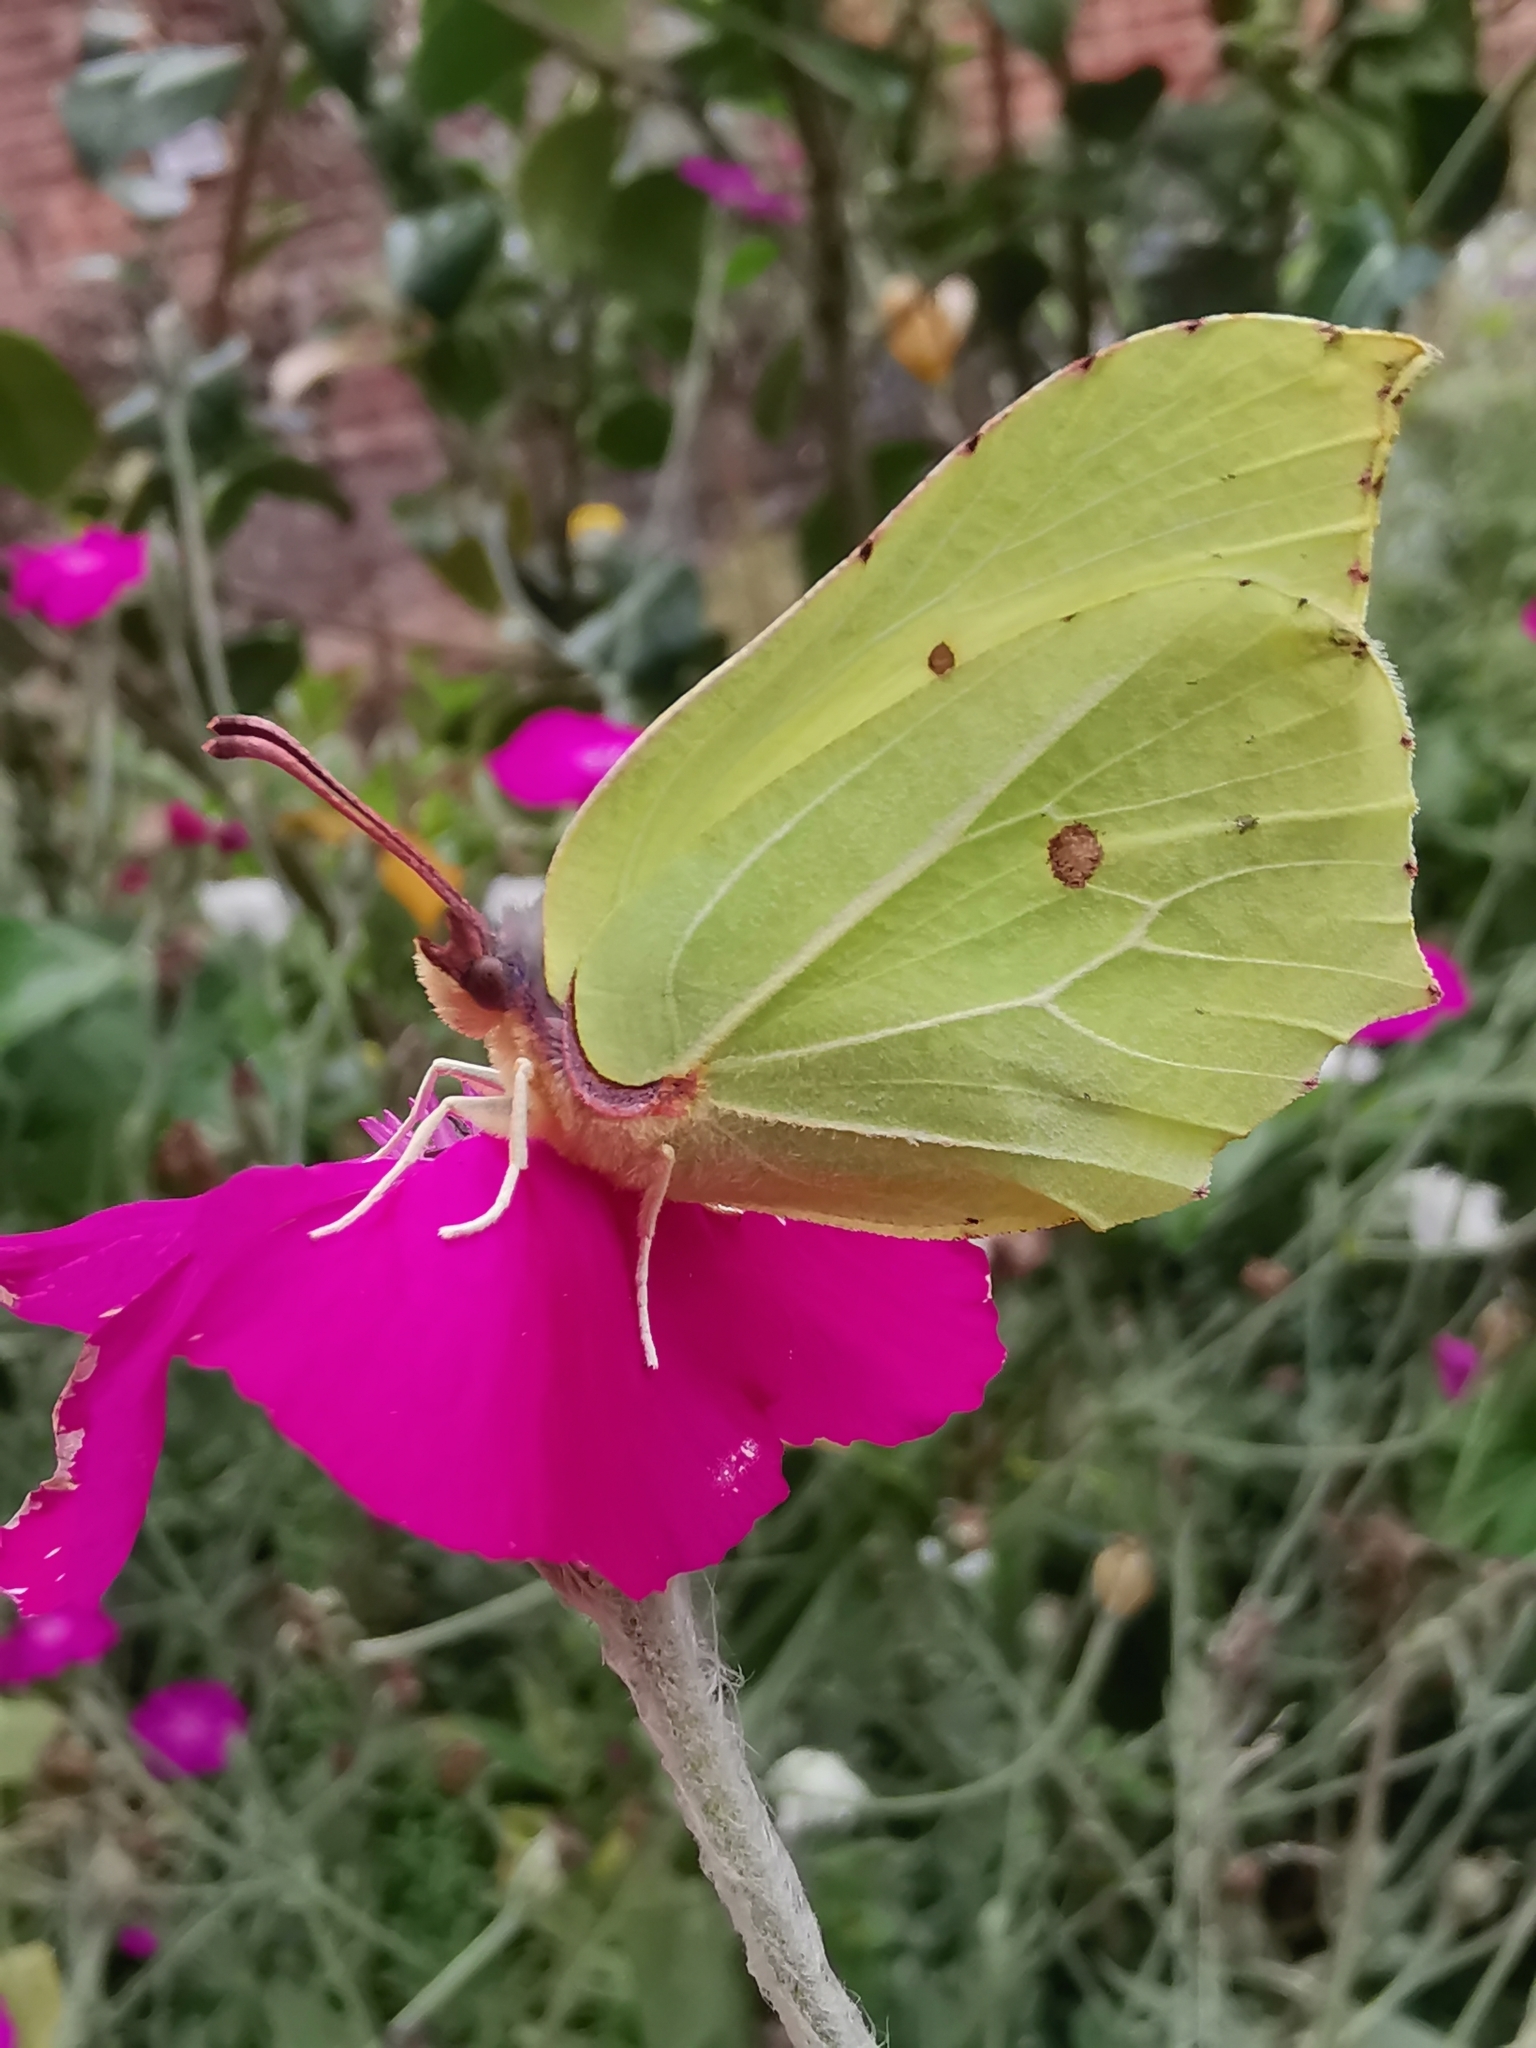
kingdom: Animalia
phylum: Arthropoda
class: Insecta
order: Lepidoptera
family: Pieridae
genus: Gonepteryx
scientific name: Gonepteryx rhamni
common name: Brimstone
